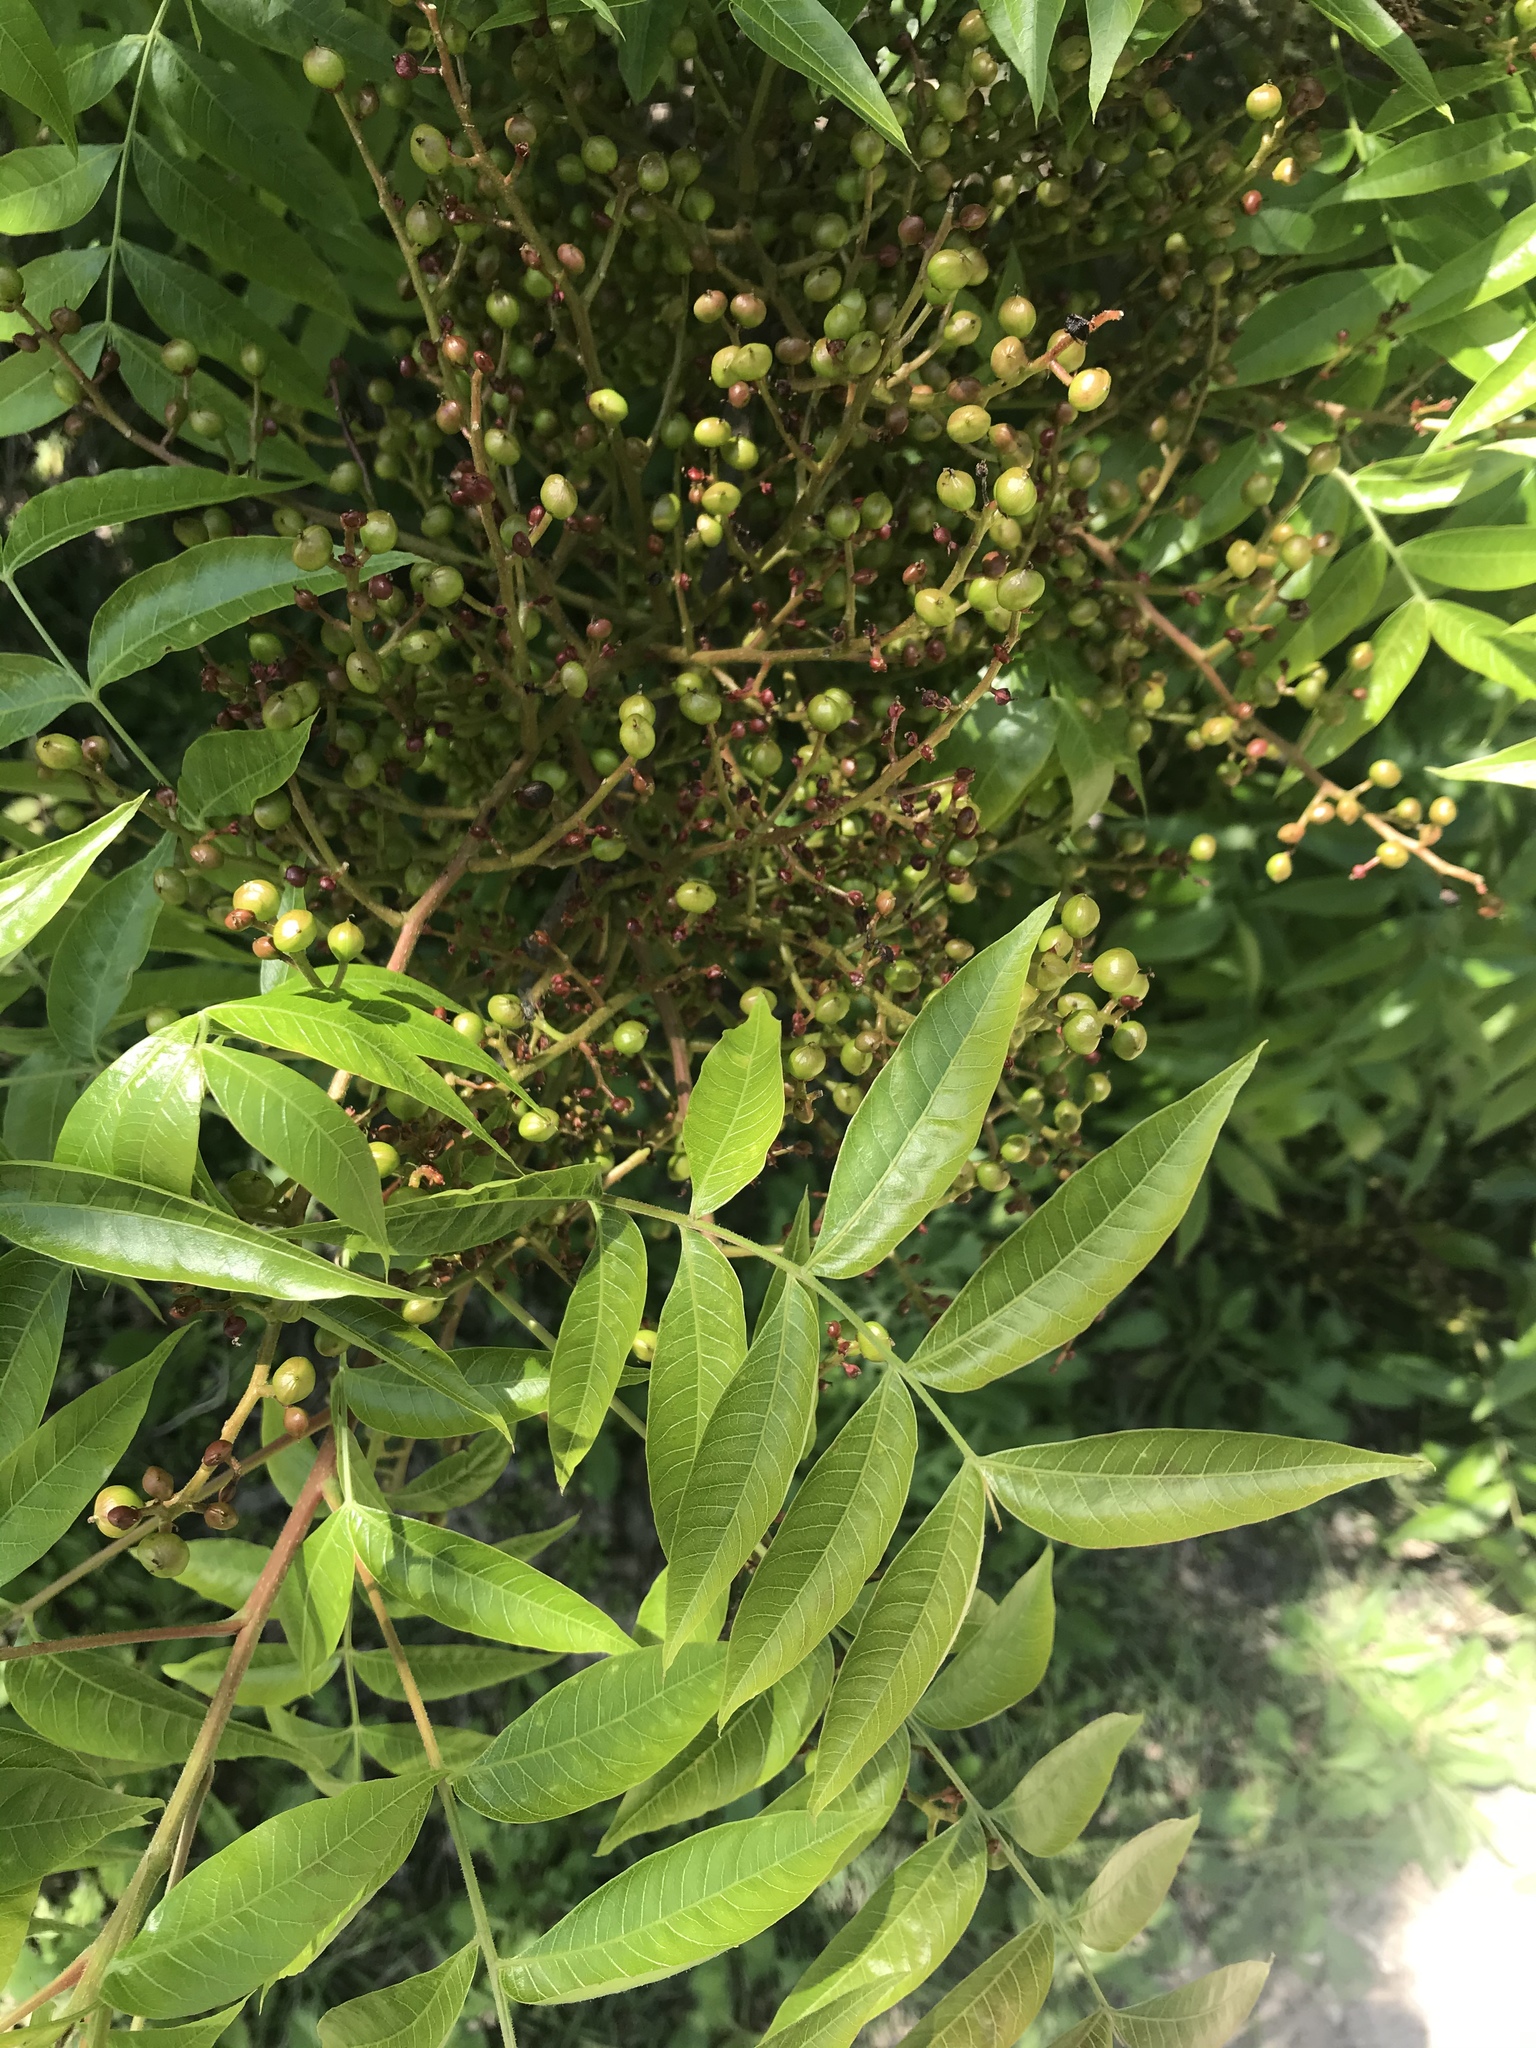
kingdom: Plantae
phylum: Tracheophyta
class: Magnoliopsida
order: Sapindales
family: Anacardiaceae
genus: Pistacia
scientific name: Pistacia chinensis
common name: Chinese pistache
